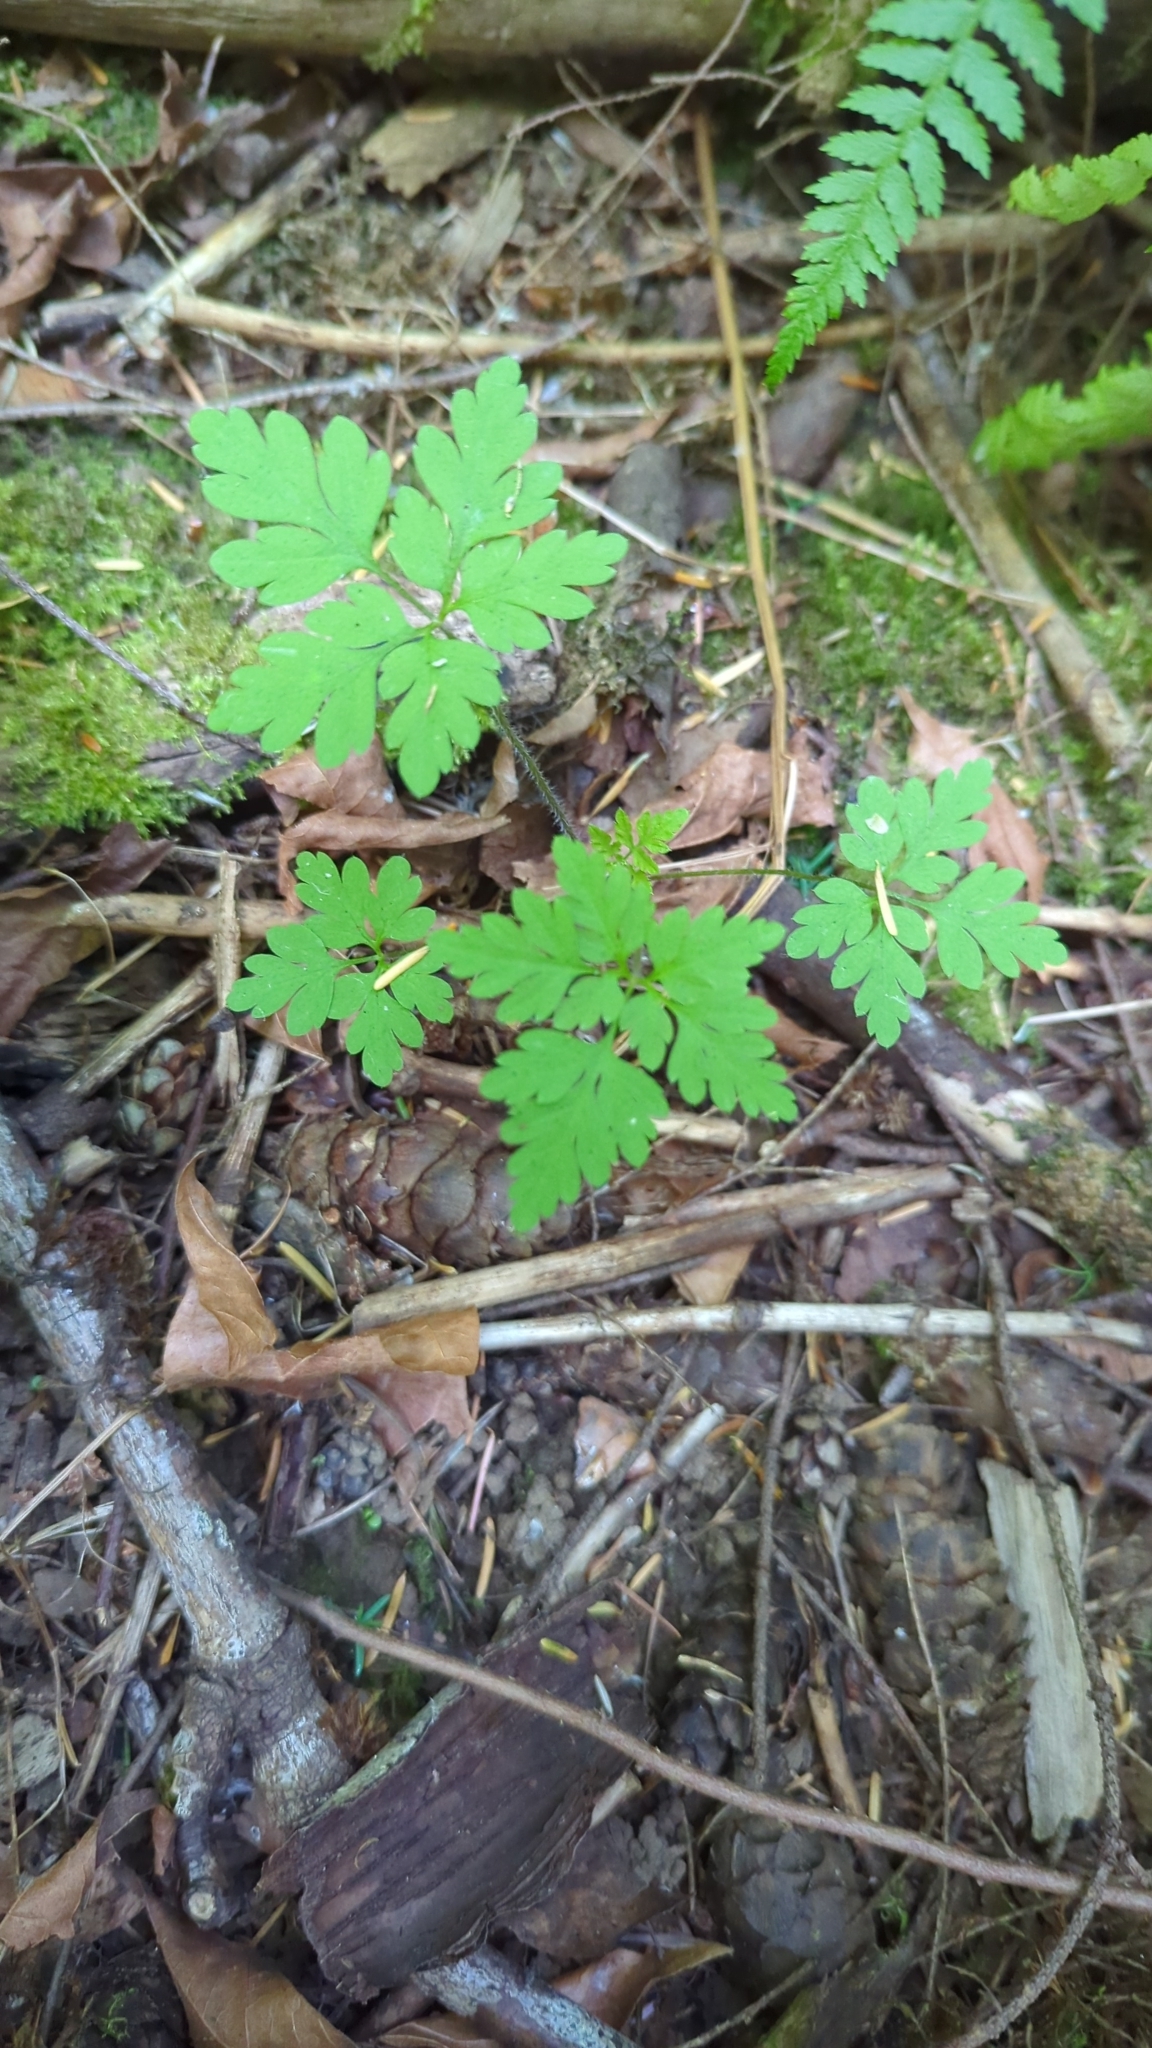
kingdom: Plantae
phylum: Tracheophyta
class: Magnoliopsida
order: Geraniales
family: Geraniaceae
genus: Geranium
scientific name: Geranium robertianum
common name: Herb-robert
